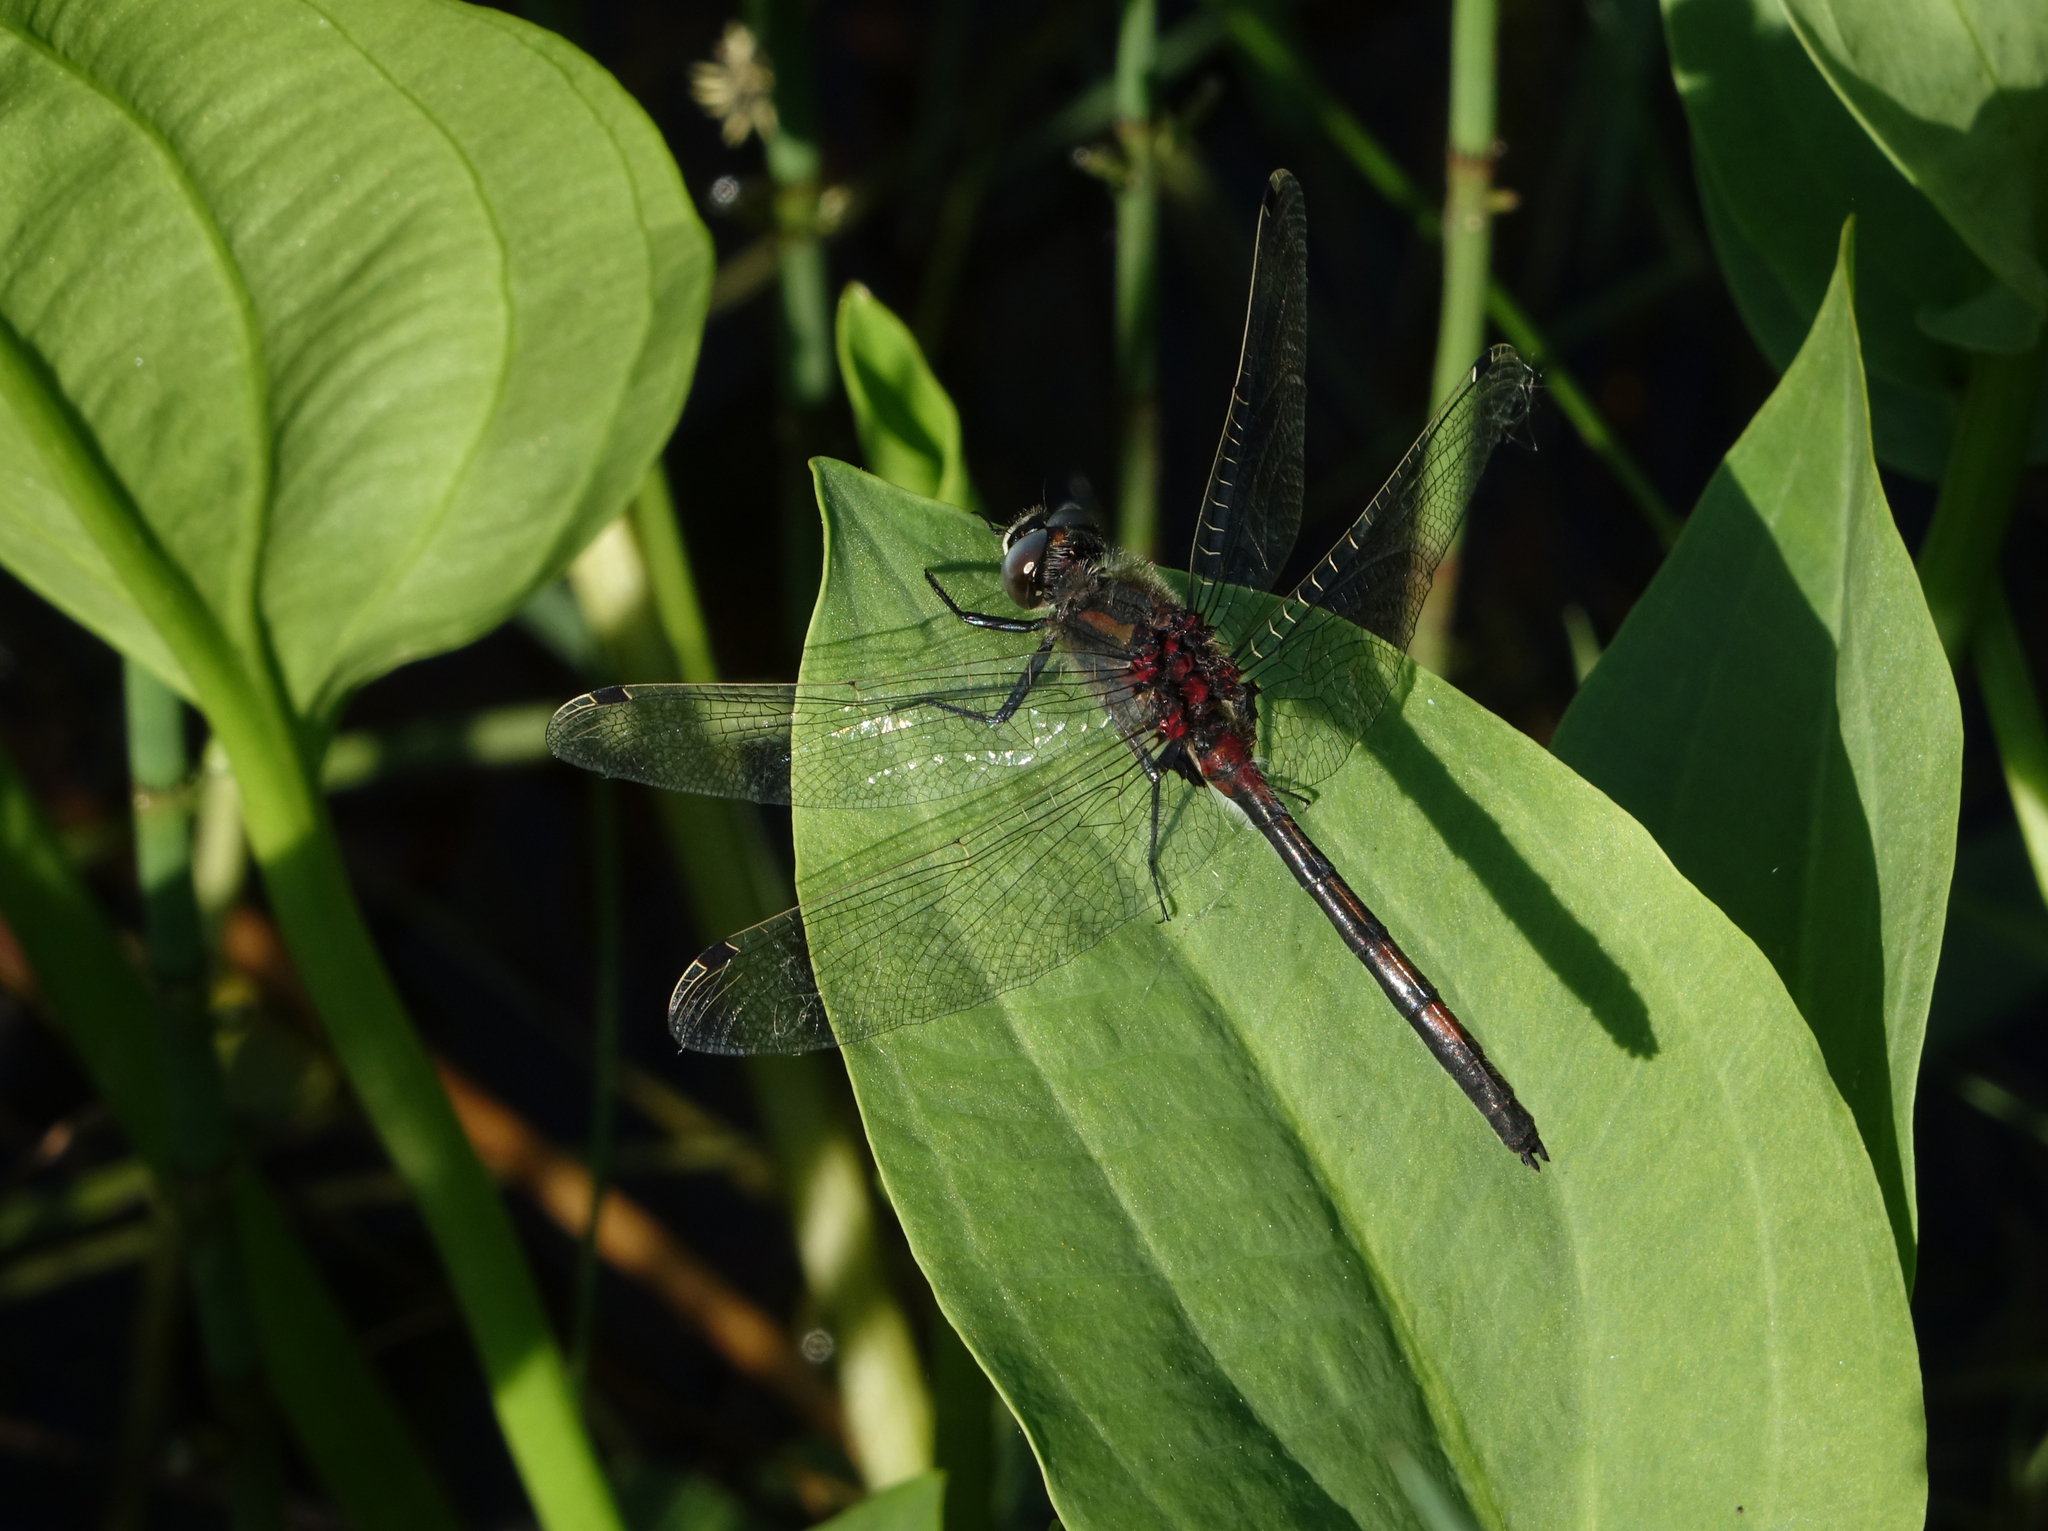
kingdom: Animalia
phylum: Arthropoda
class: Insecta
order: Odonata
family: Libellulidae
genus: Leucorrhinia
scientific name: Leucorrhinia intermedia
